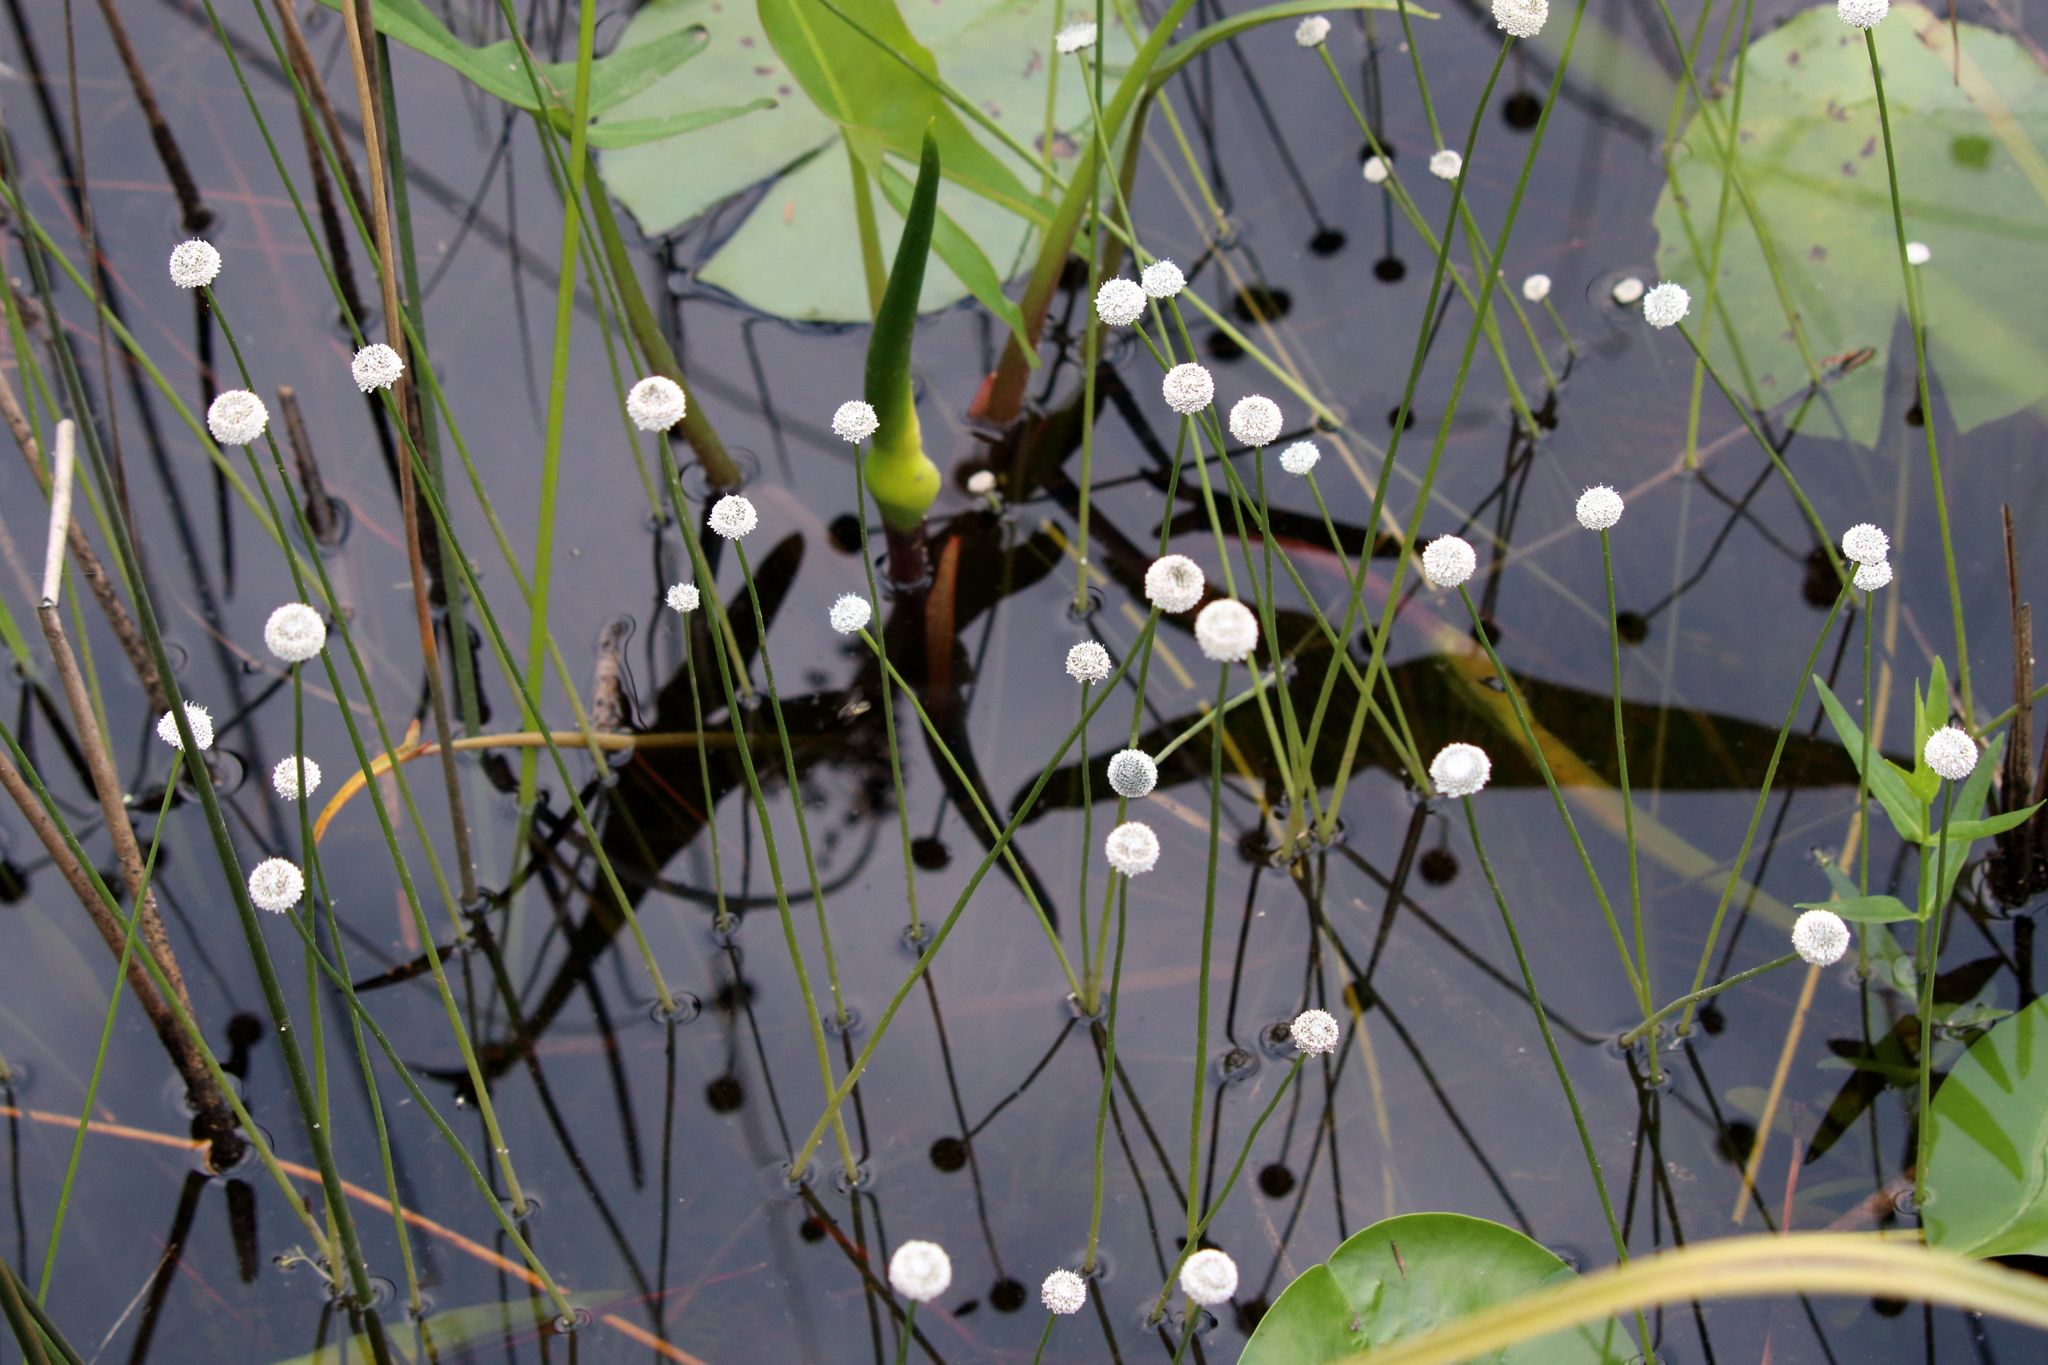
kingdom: Plantae
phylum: Tracheophyta
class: Liliopsida
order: Poales
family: Eriocaulaceae
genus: Eriocaulon
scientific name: Eriocaulon compressum
